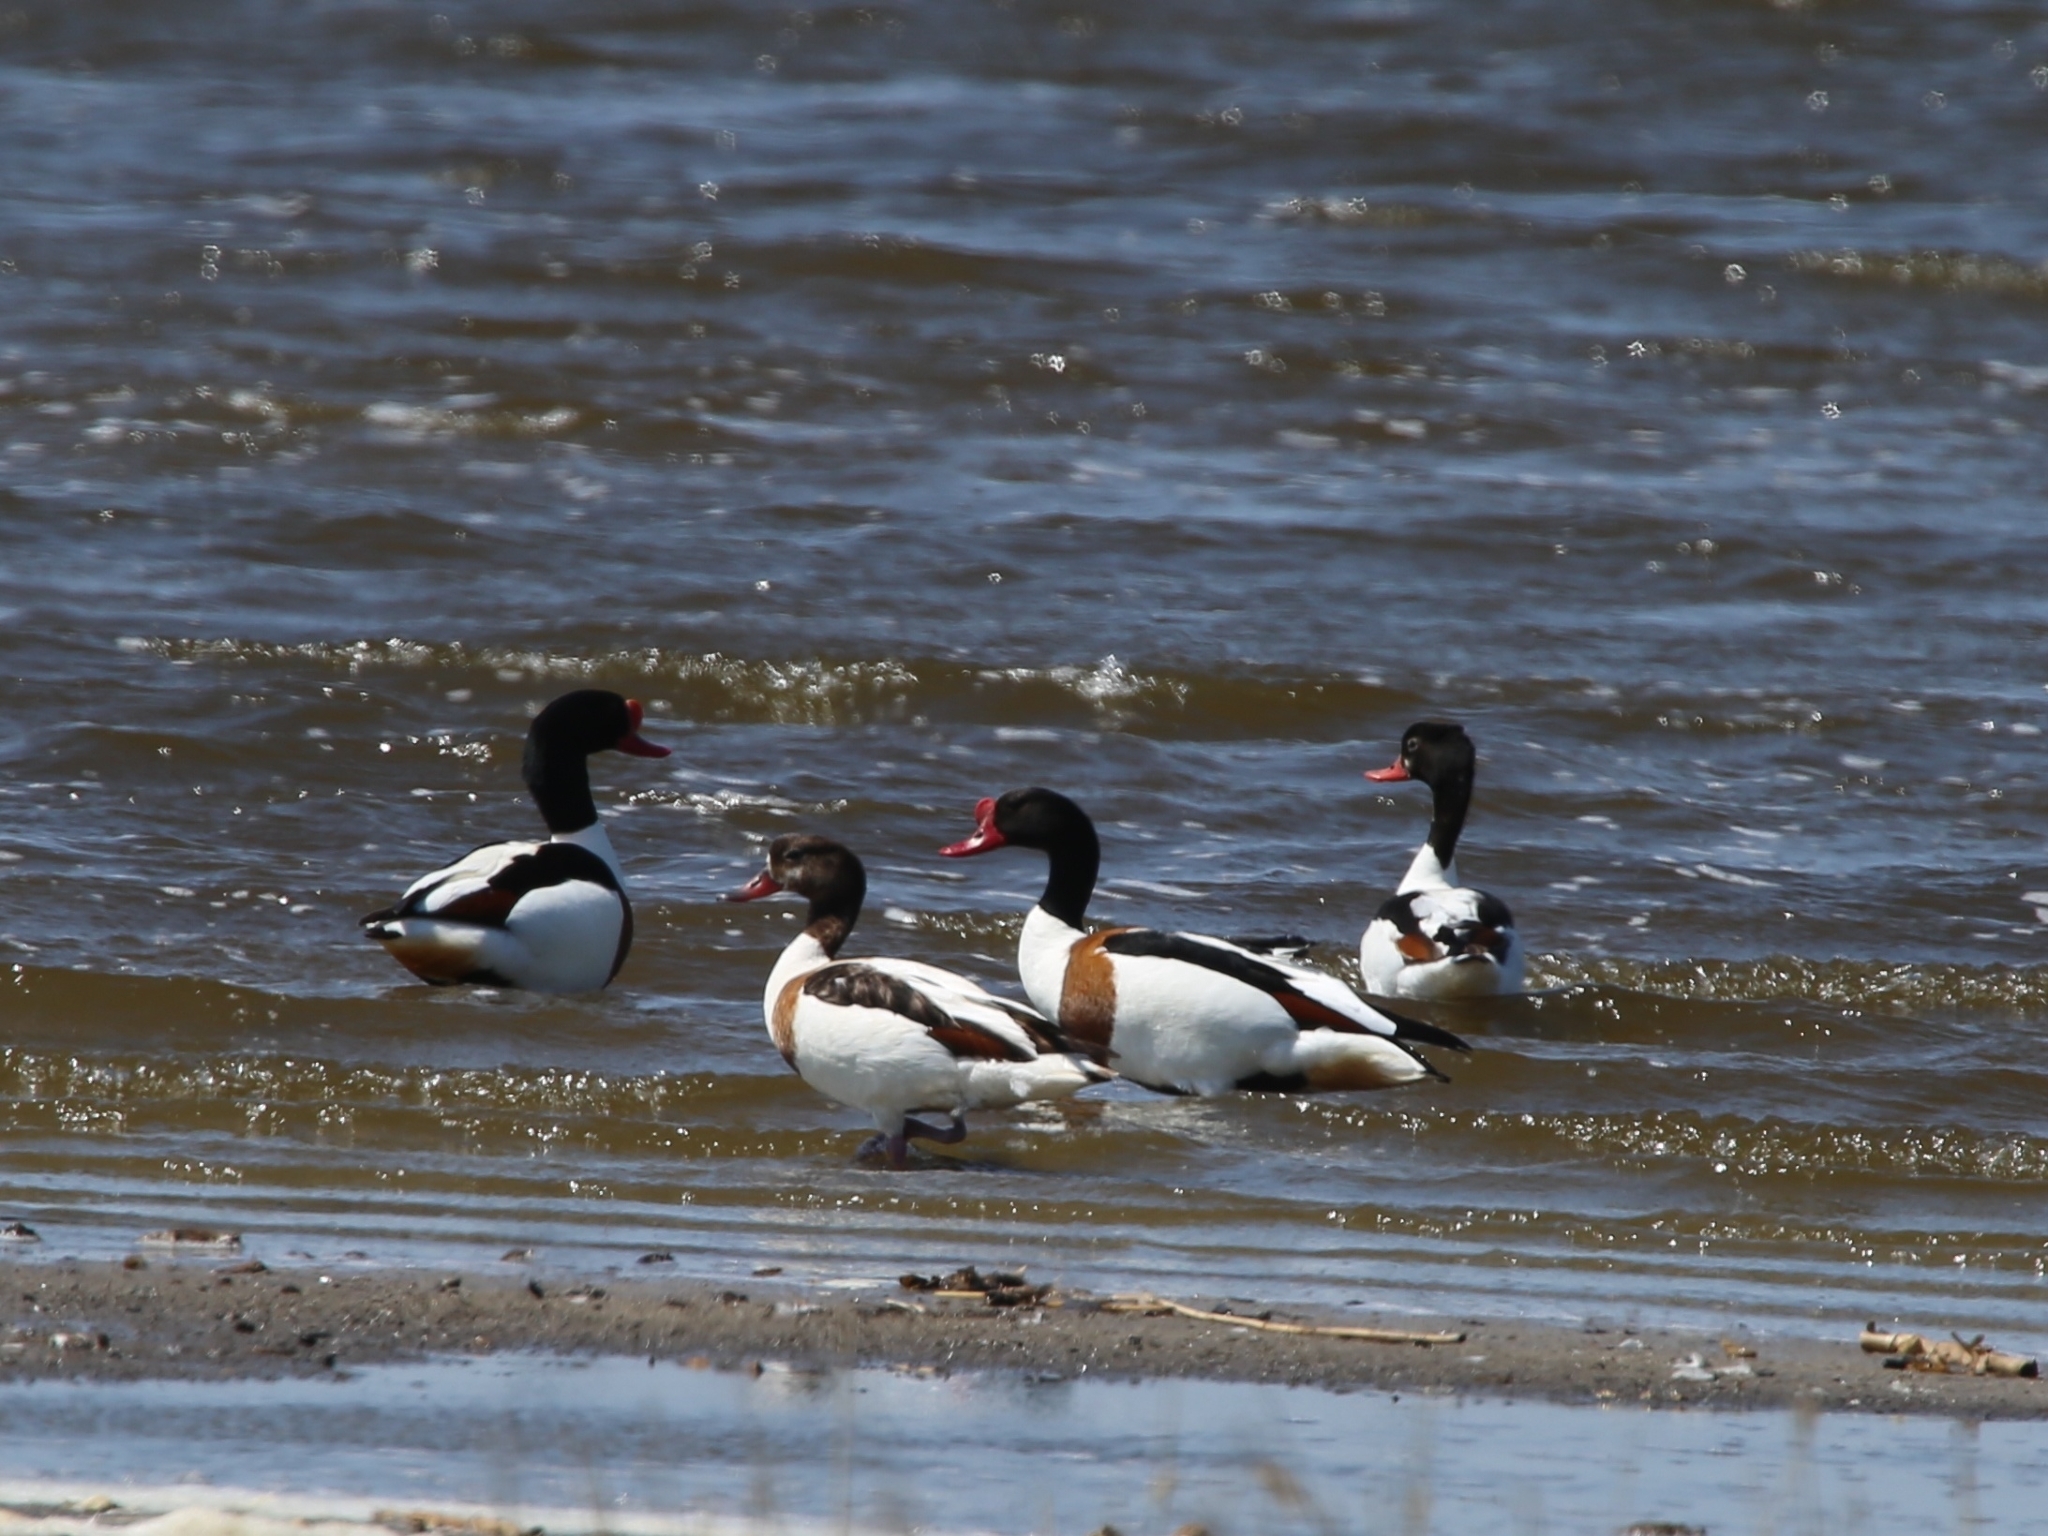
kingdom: Animalia
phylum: Chordata
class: Aves
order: Anseriformes
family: Anatidae
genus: Tadorna
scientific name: Tadorna tadorna
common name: Common shelduck
